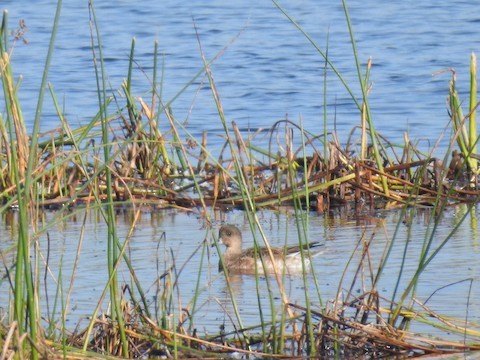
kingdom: Animalia
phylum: Chordata
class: Aves
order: Anseriformes
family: Anatidae
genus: Mareca
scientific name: Mareca penelope
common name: Eurasian wigeon
